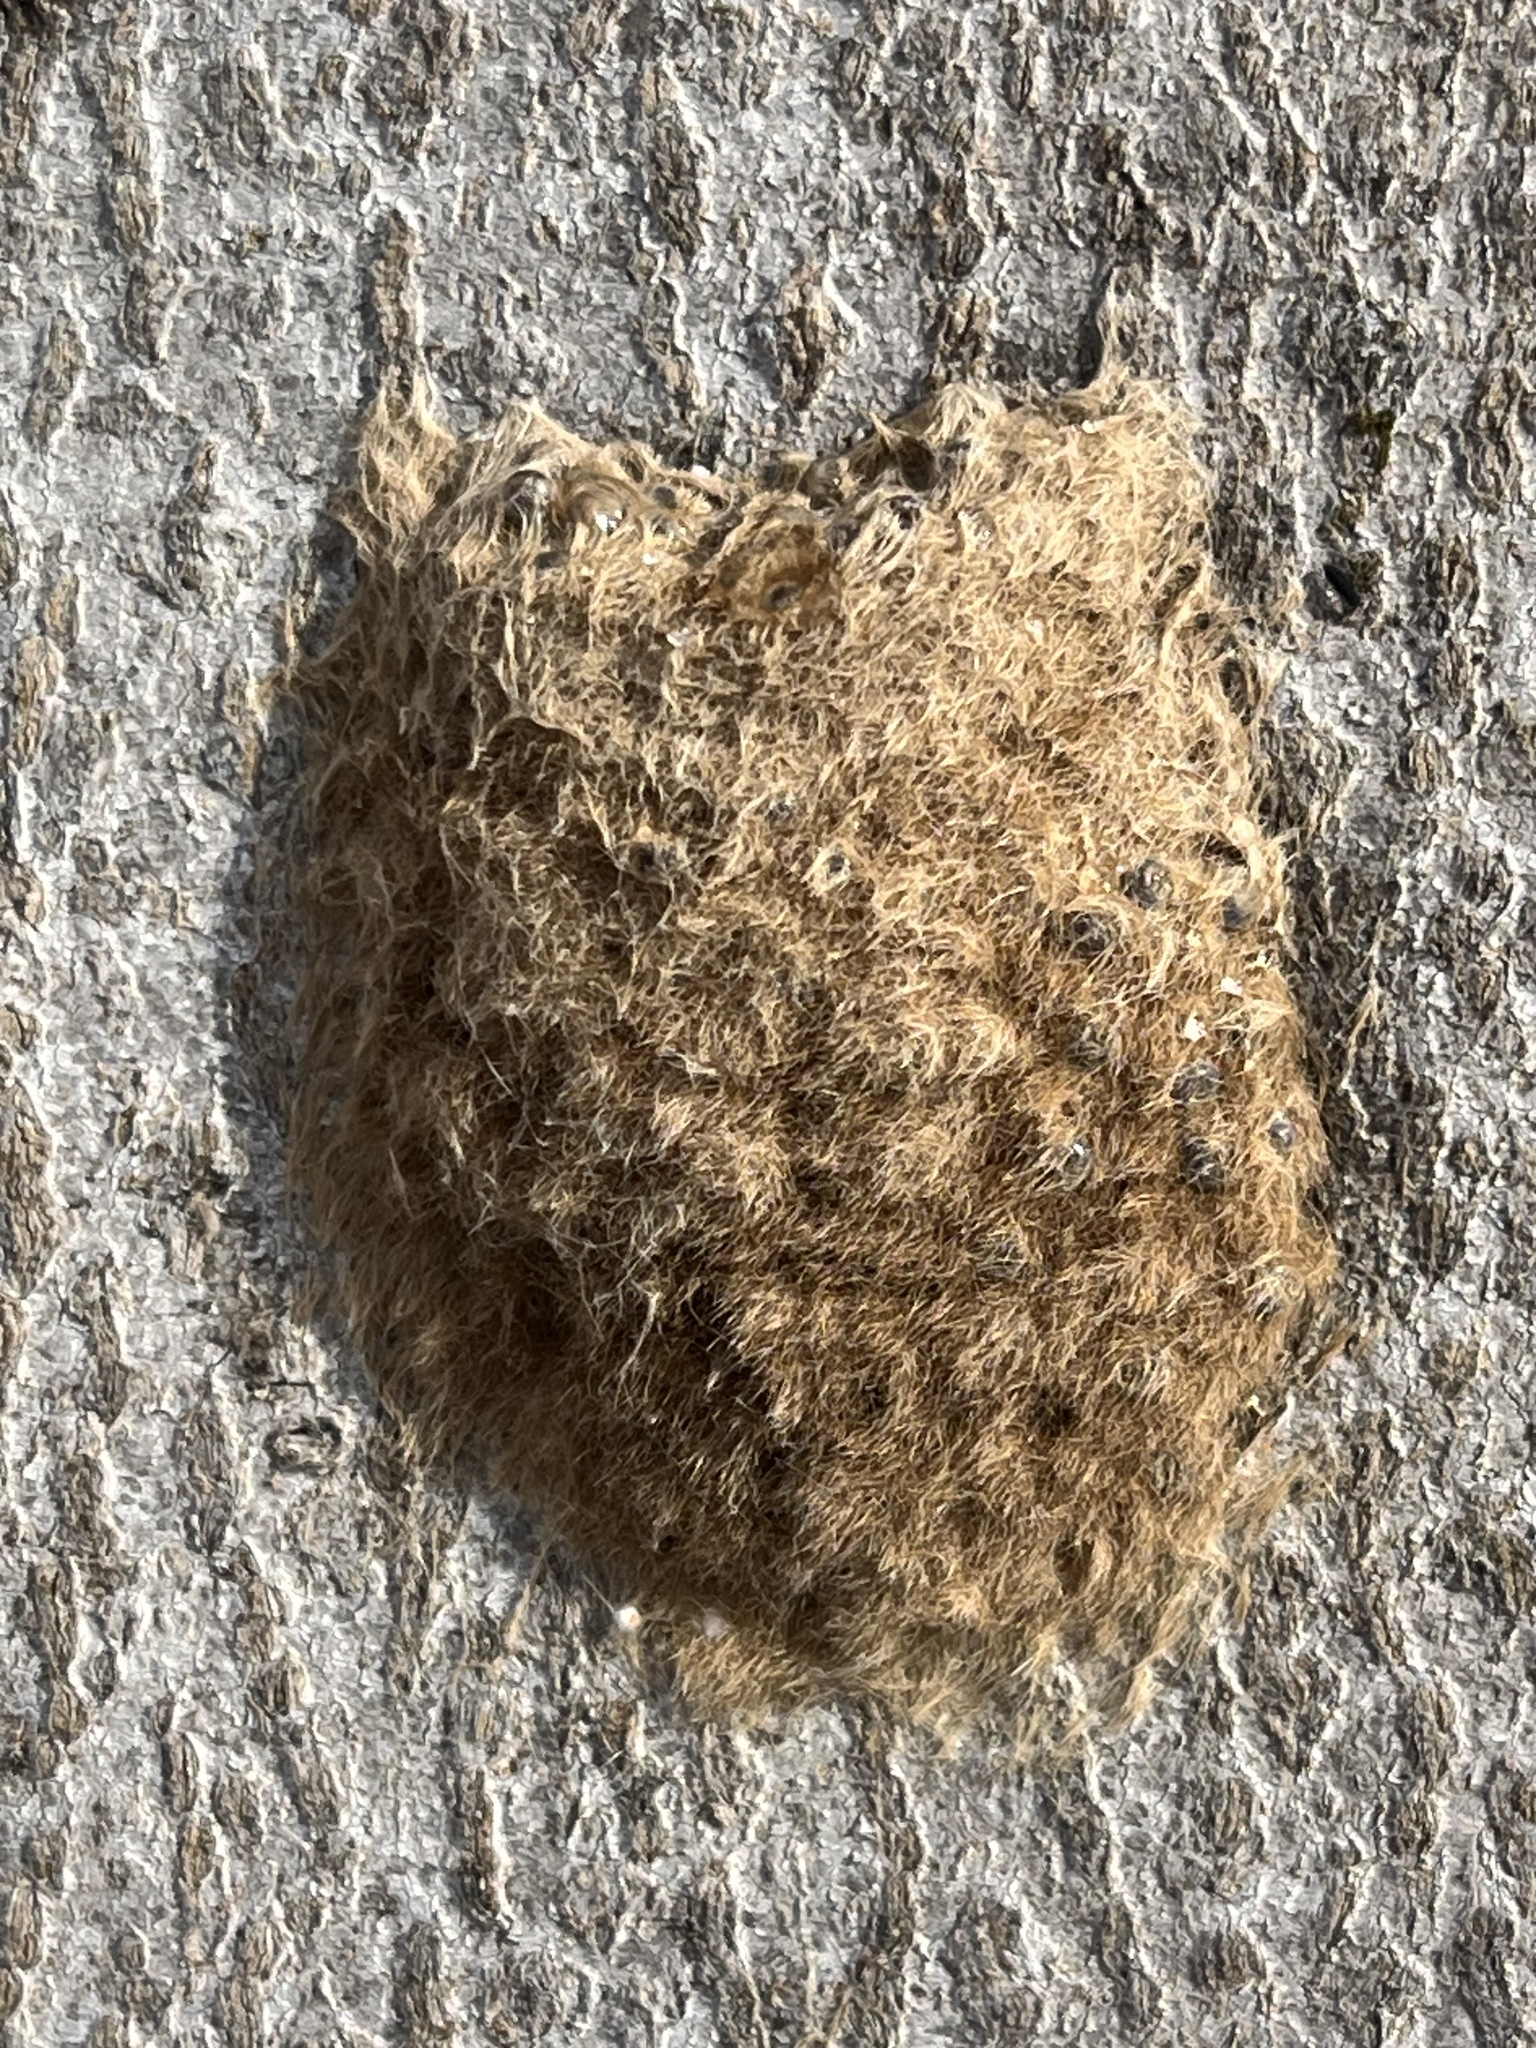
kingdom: Animalia
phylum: Arthropoda
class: Insecta
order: Lepidoptera
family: Erebidae
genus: Lymantria
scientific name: Lymantria dispar
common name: Gypsy moth
